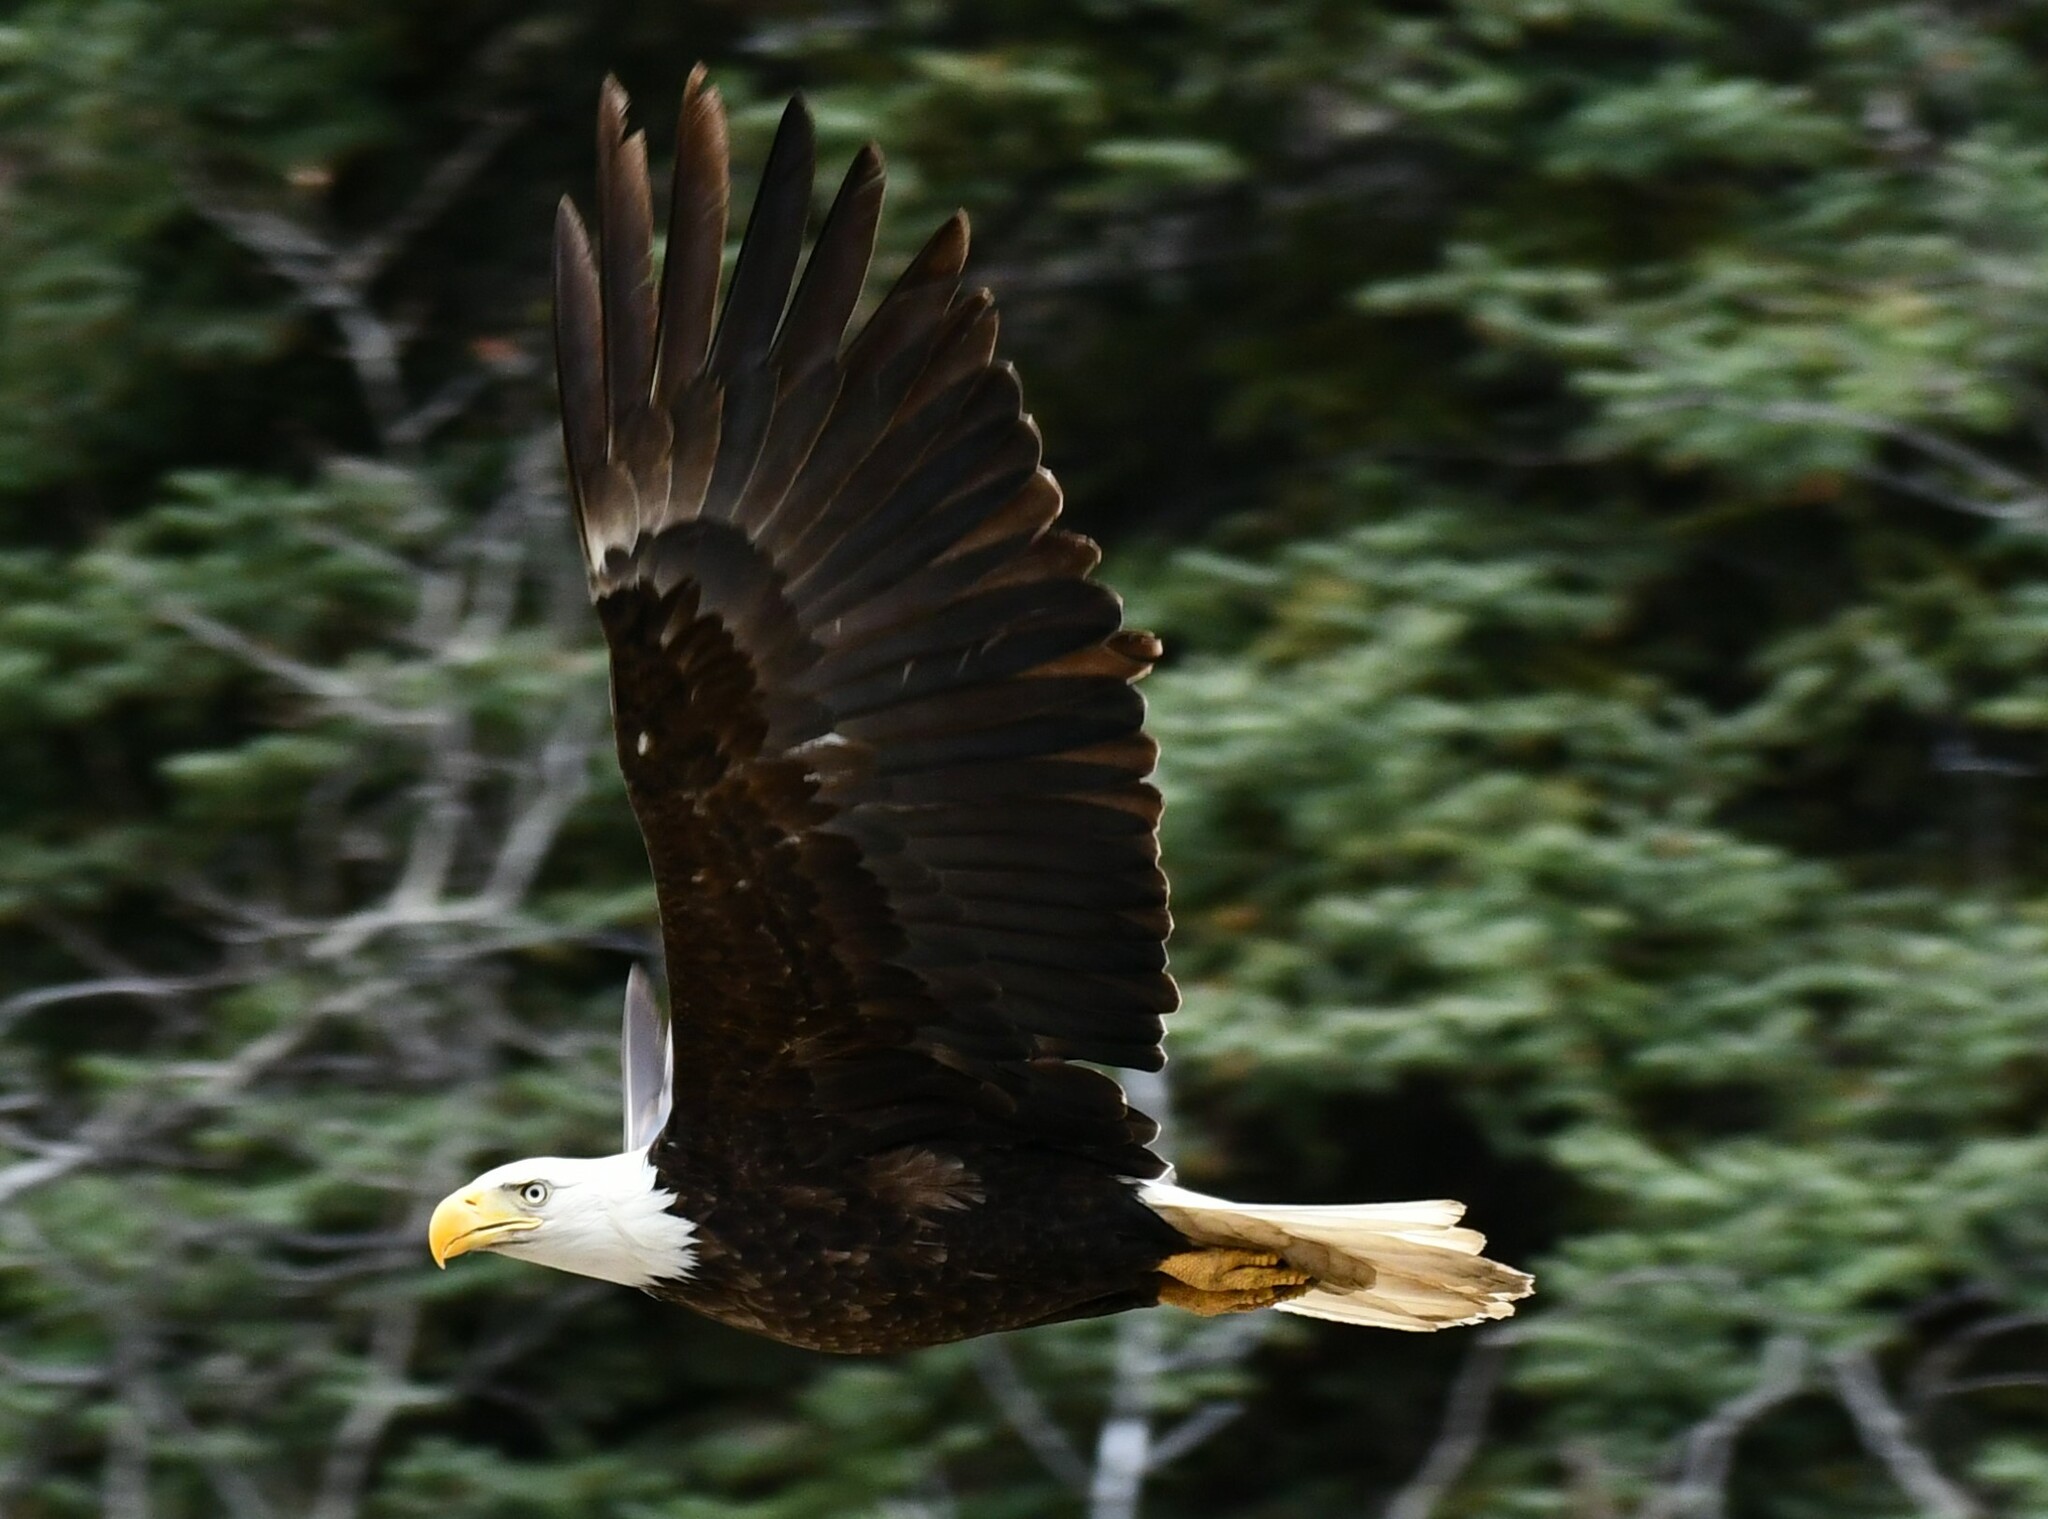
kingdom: Animalia
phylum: Chordata
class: Aves
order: Accipitriformes
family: Accipitridae
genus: Haliaeetus
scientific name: Haliaeetus leucocephalus
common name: Bald eagle
